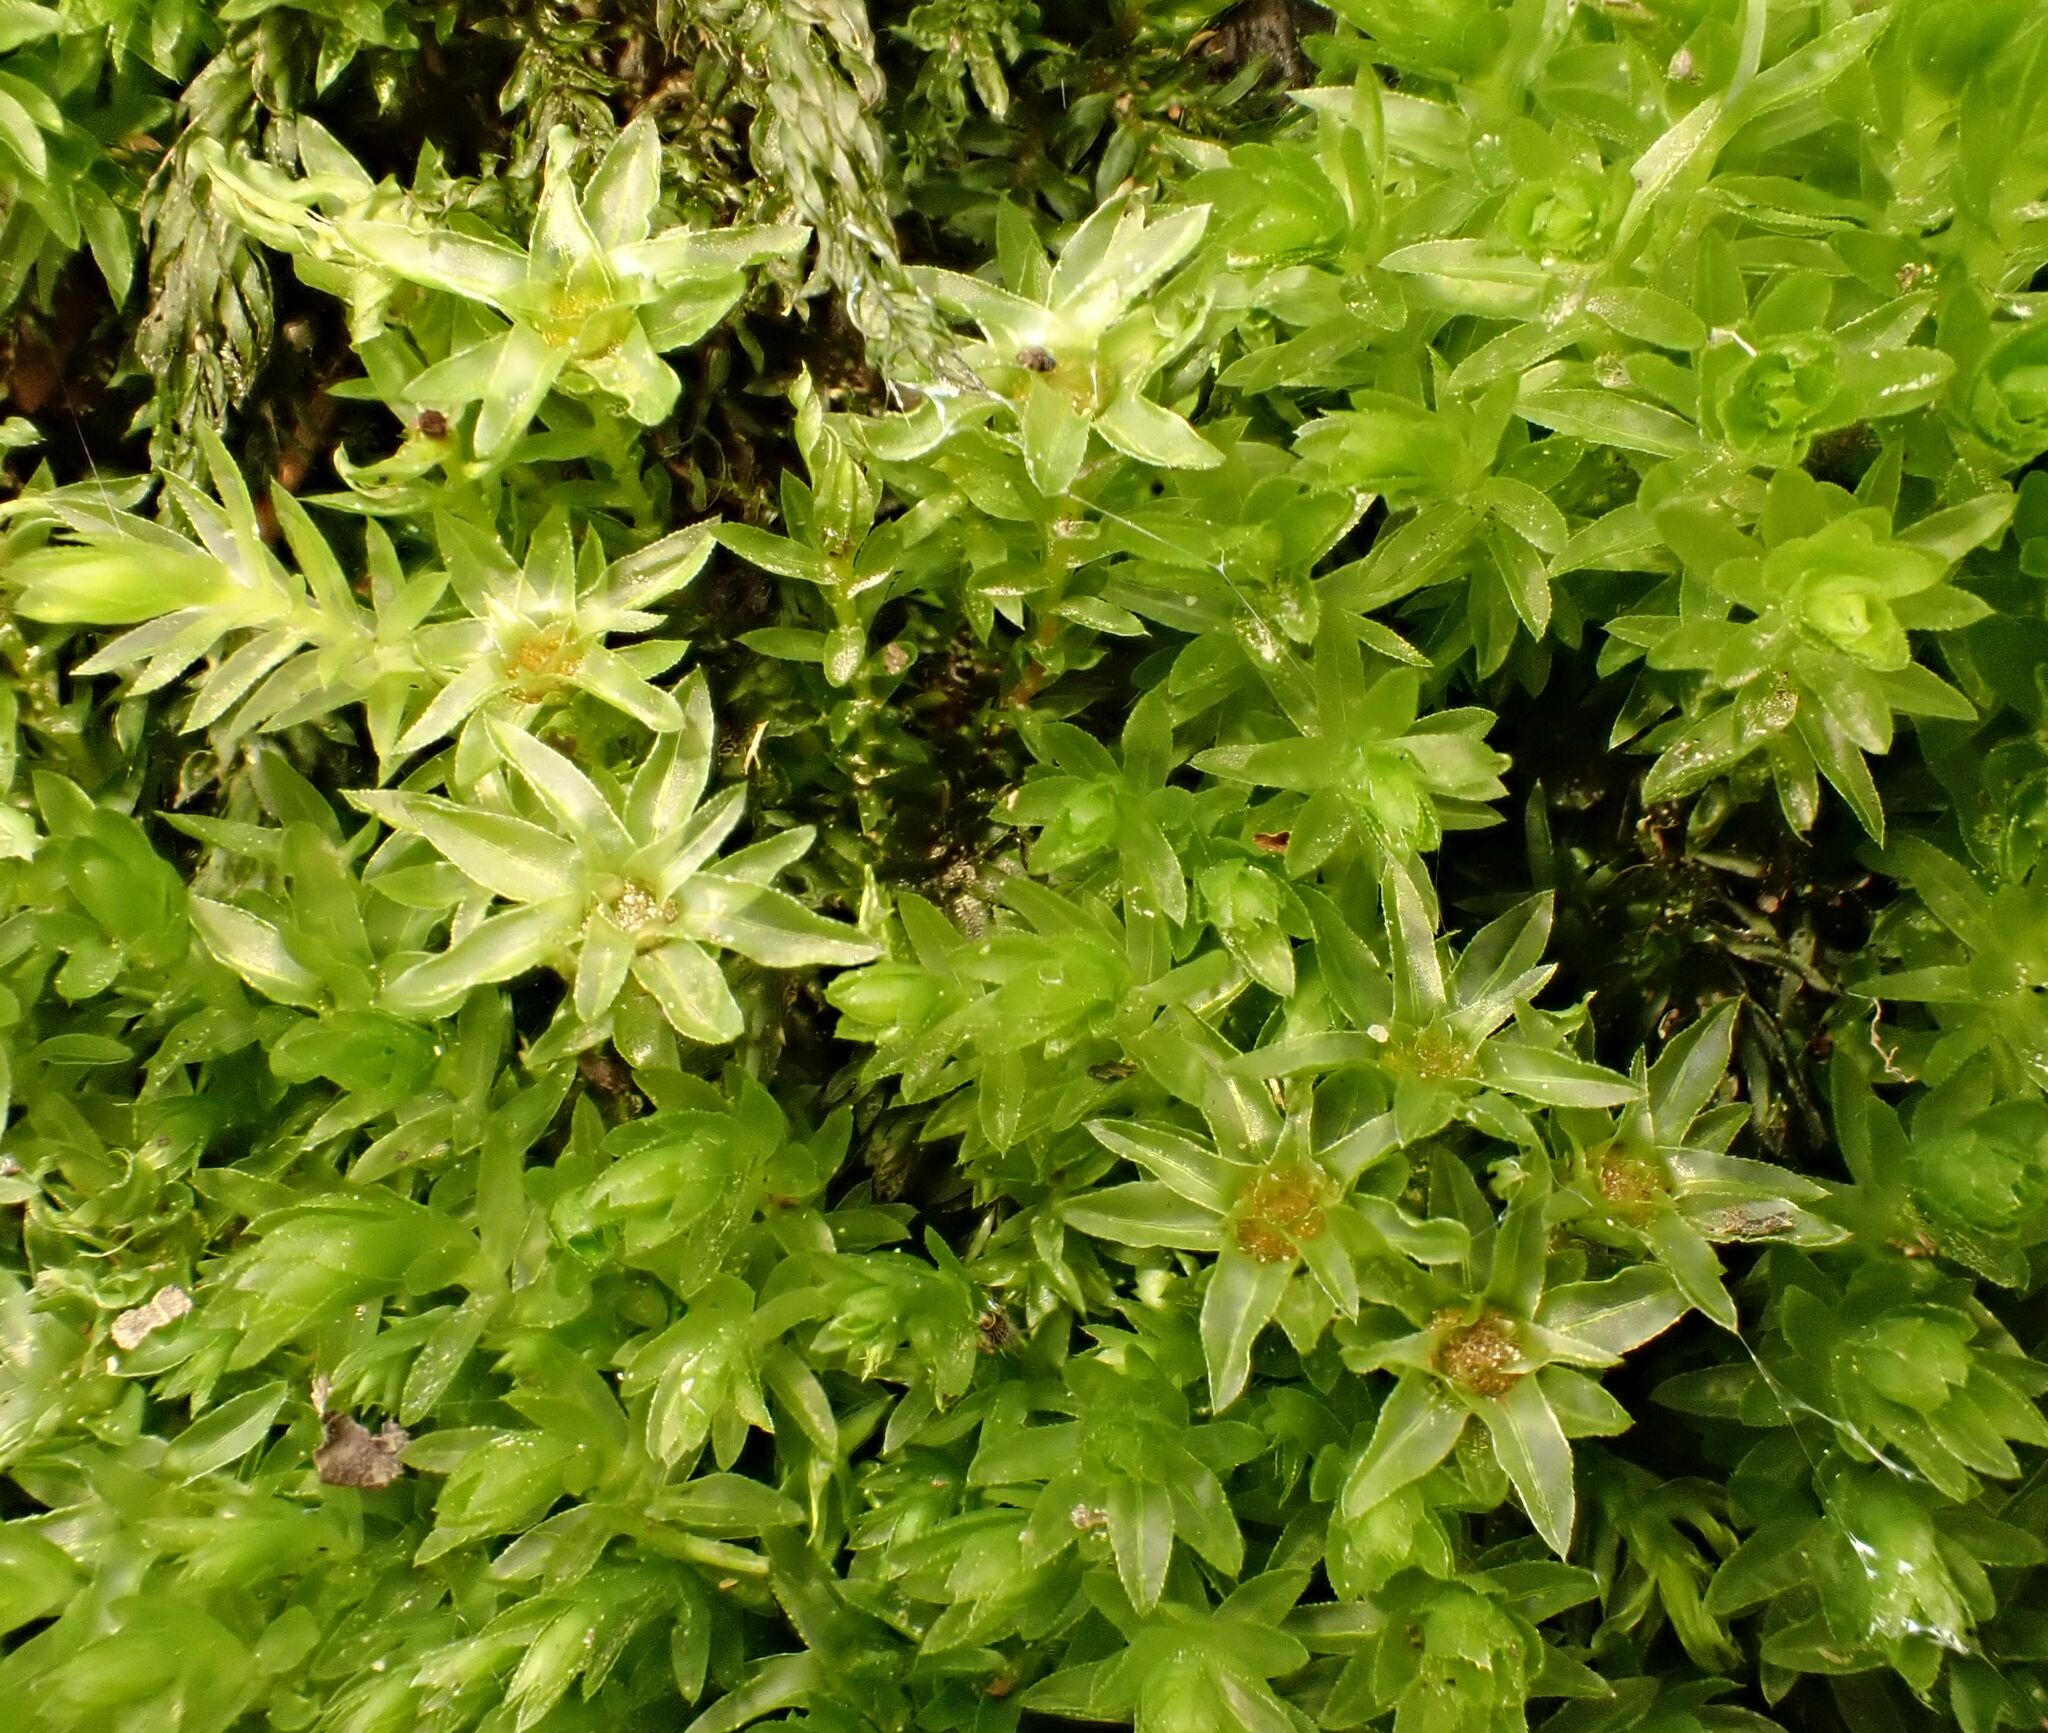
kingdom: Plantae
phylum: Bryophyta
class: Bryopsida
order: Bryales
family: Mniaceae
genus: Mnium
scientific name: Mnium hornum
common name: Swan's-neck leafy moss
